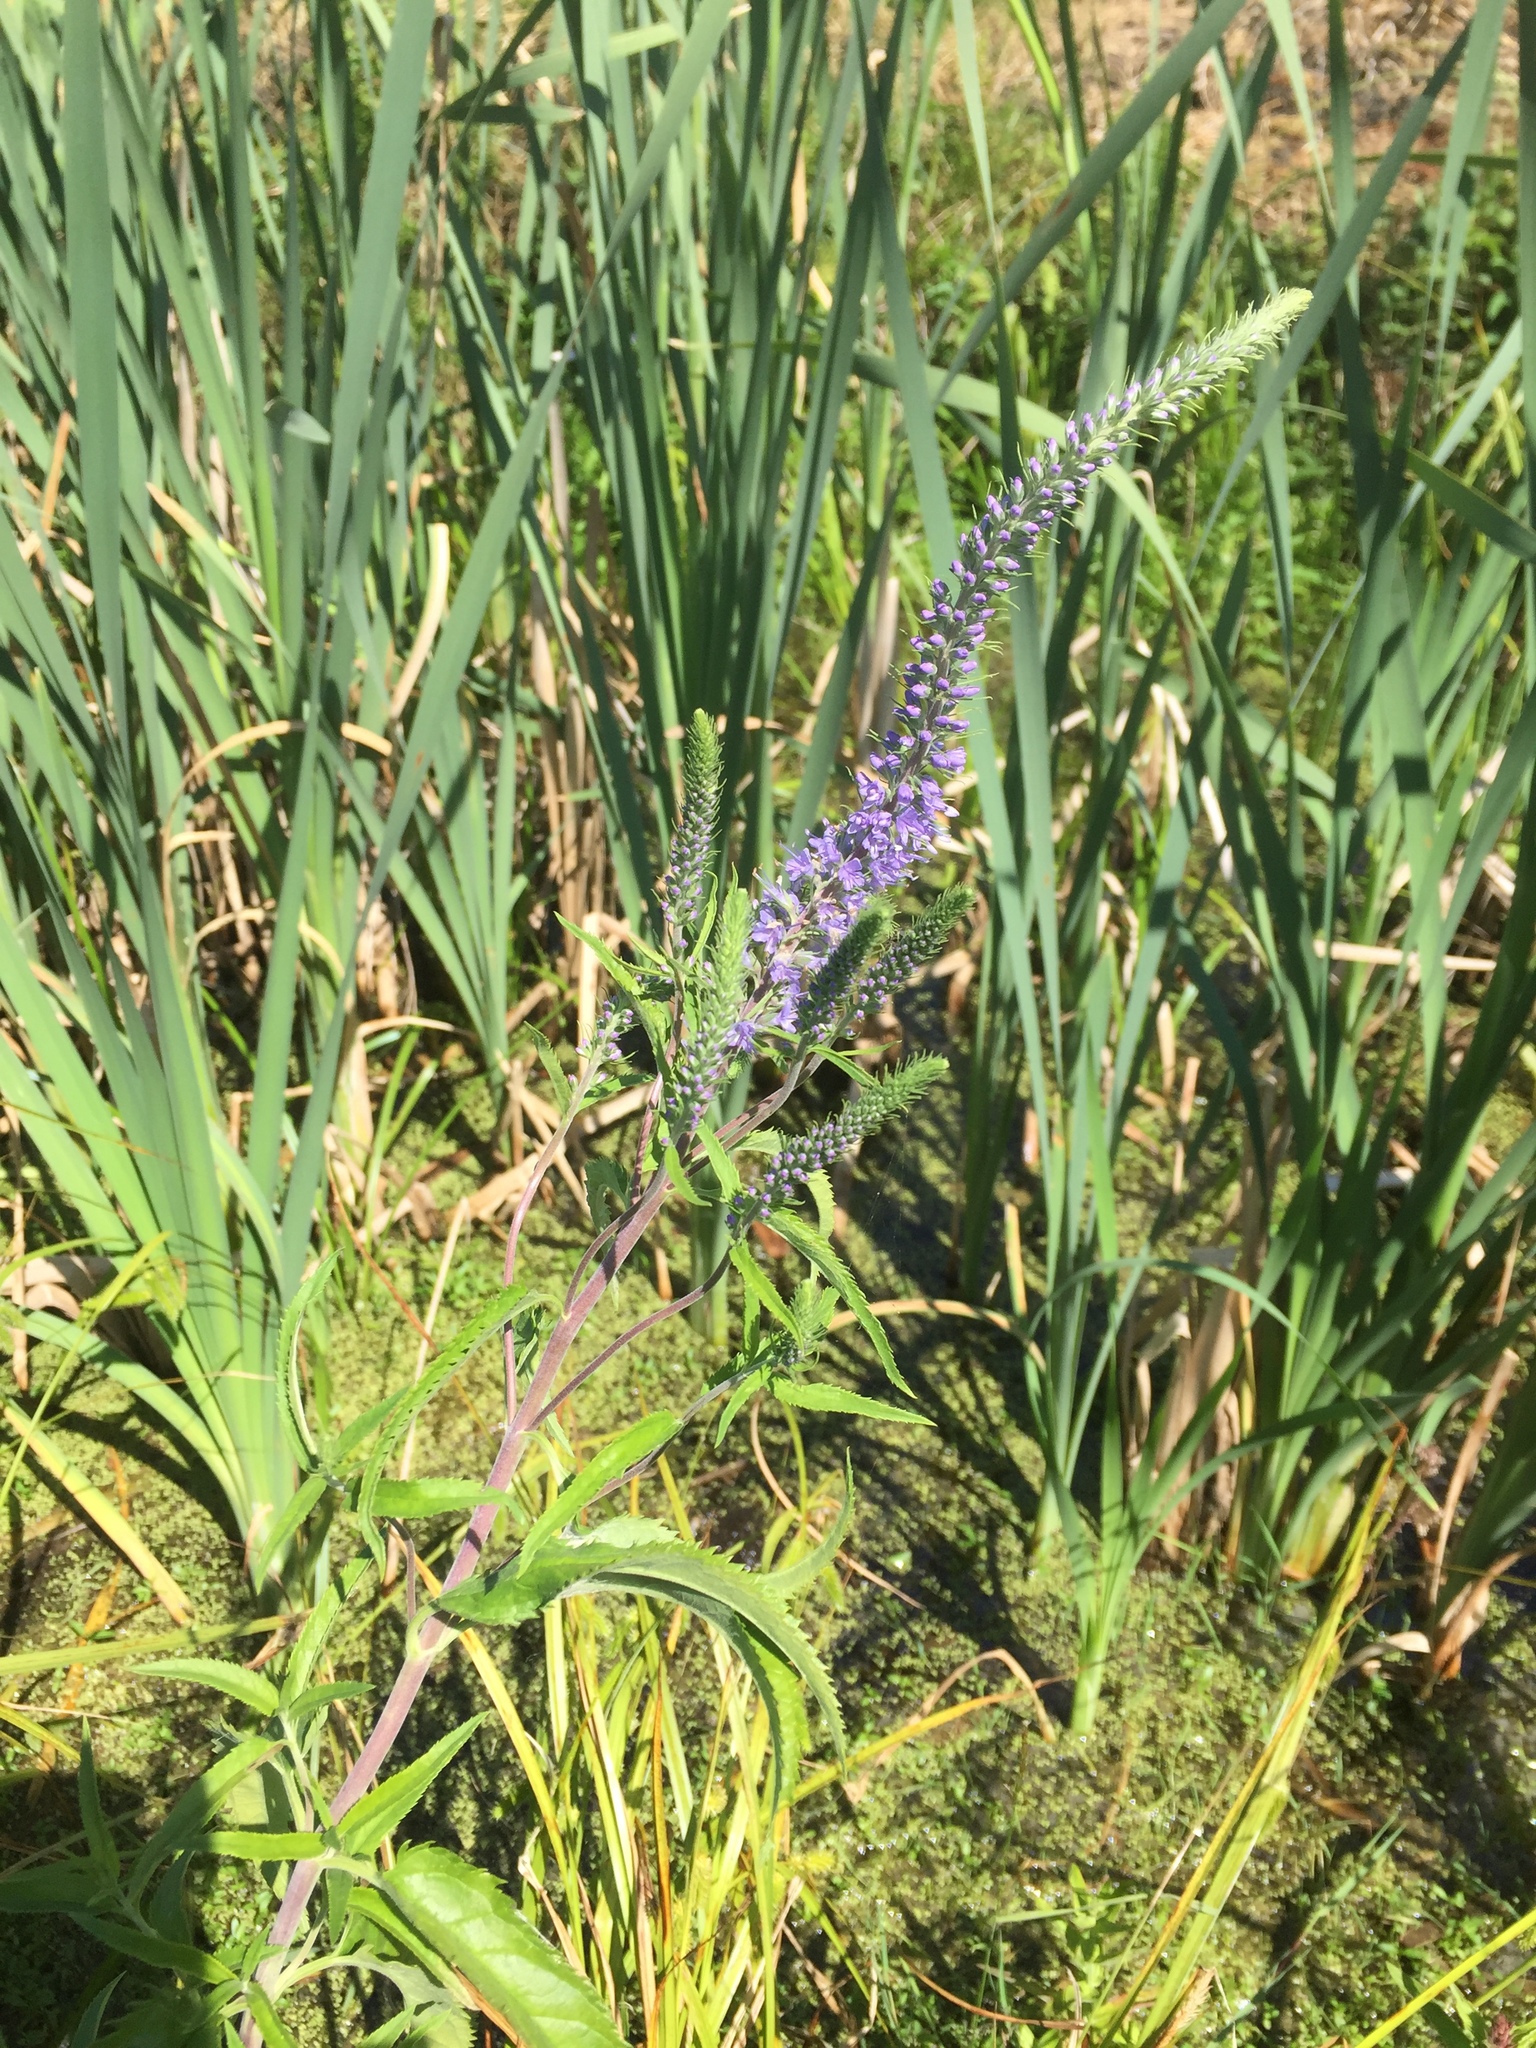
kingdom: Plantae
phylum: Tracheophyta
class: Magnoliopsida
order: Lamiales
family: Plantaginaceae
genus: Veronica
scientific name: Veronica longifolia
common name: Garden speedwell
